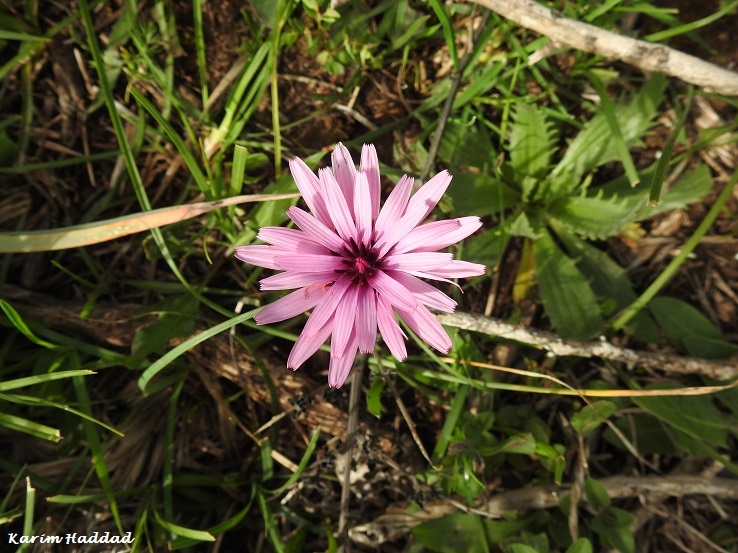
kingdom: Plantae
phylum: Tracheophyta
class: Magnoliopsida
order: Asterales
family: Asteraceae
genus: Pseudopodospermum
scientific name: Pseudopodospermum undulatum
